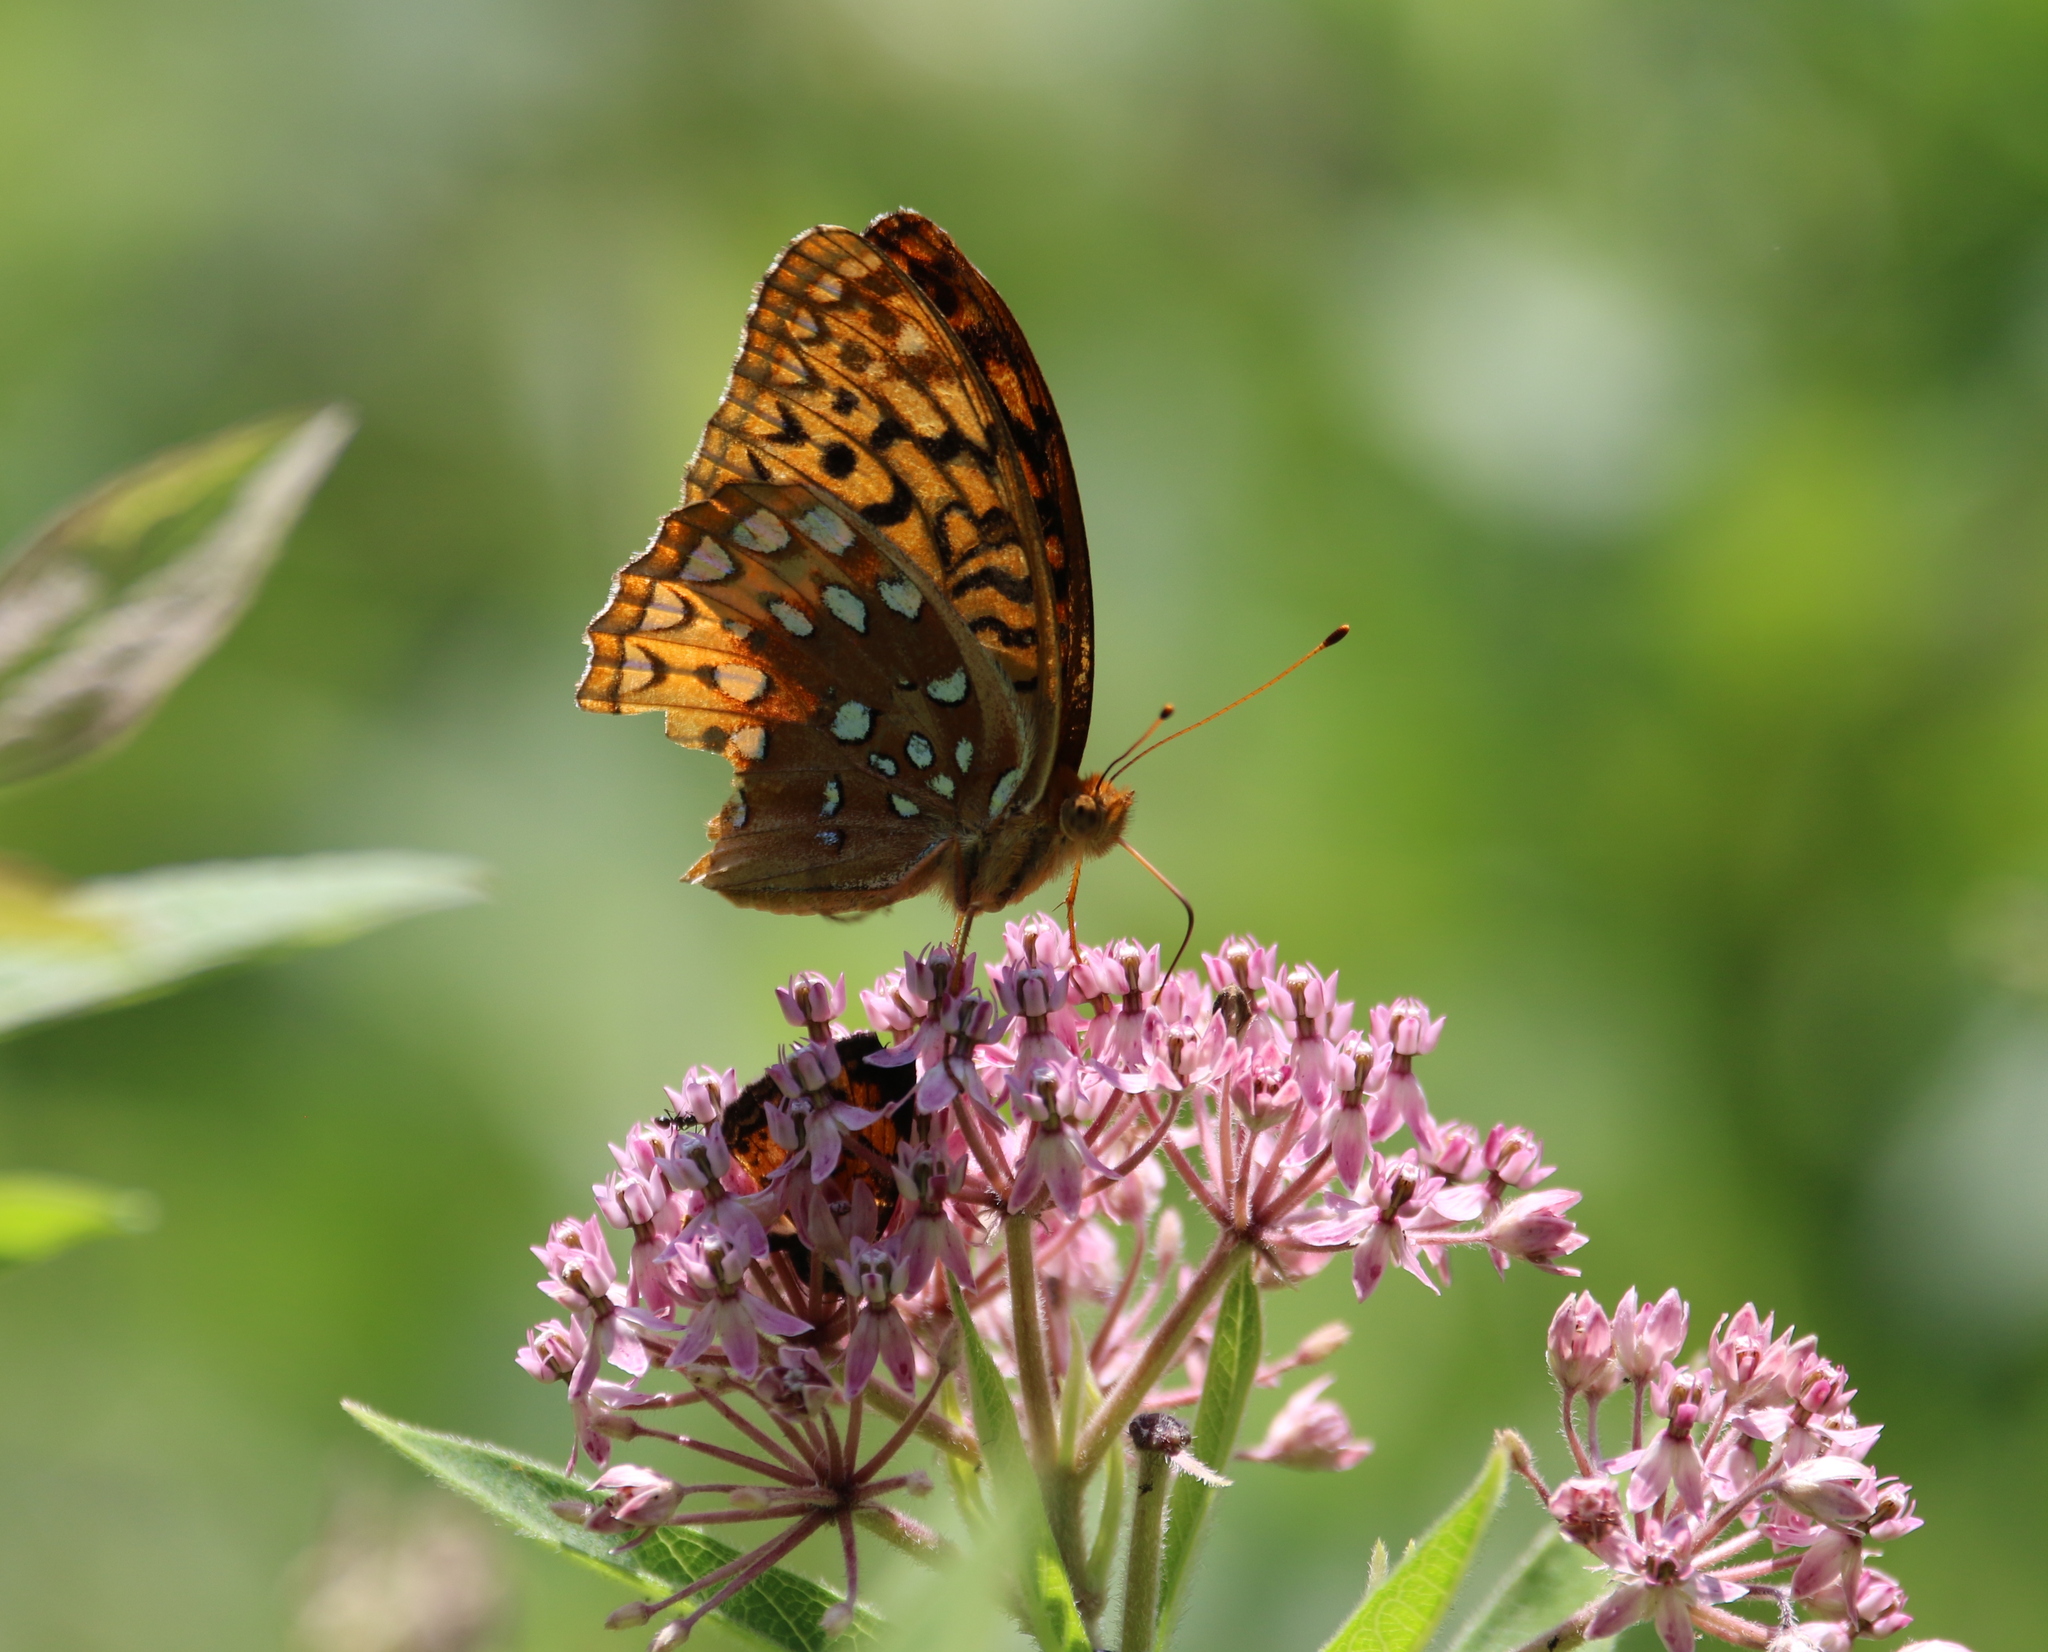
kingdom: Animalia
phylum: Arthropoda
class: Insecta
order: Lepidoptera
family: Nymphalidae
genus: Speyeria
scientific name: Speyeria cybele
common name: Great spangled fritillary
